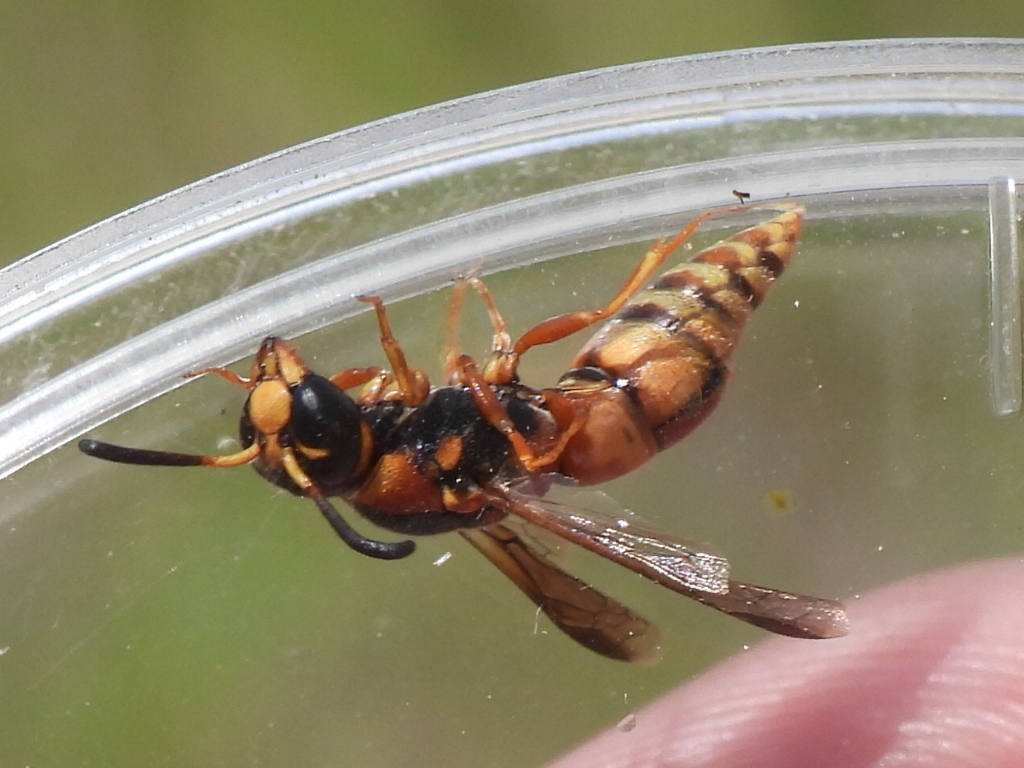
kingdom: Animalia
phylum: Arthropoda
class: Insecta
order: Hymenoptera
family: Eumenidae
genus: Euodynerus
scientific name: Euodynerus pratensis
